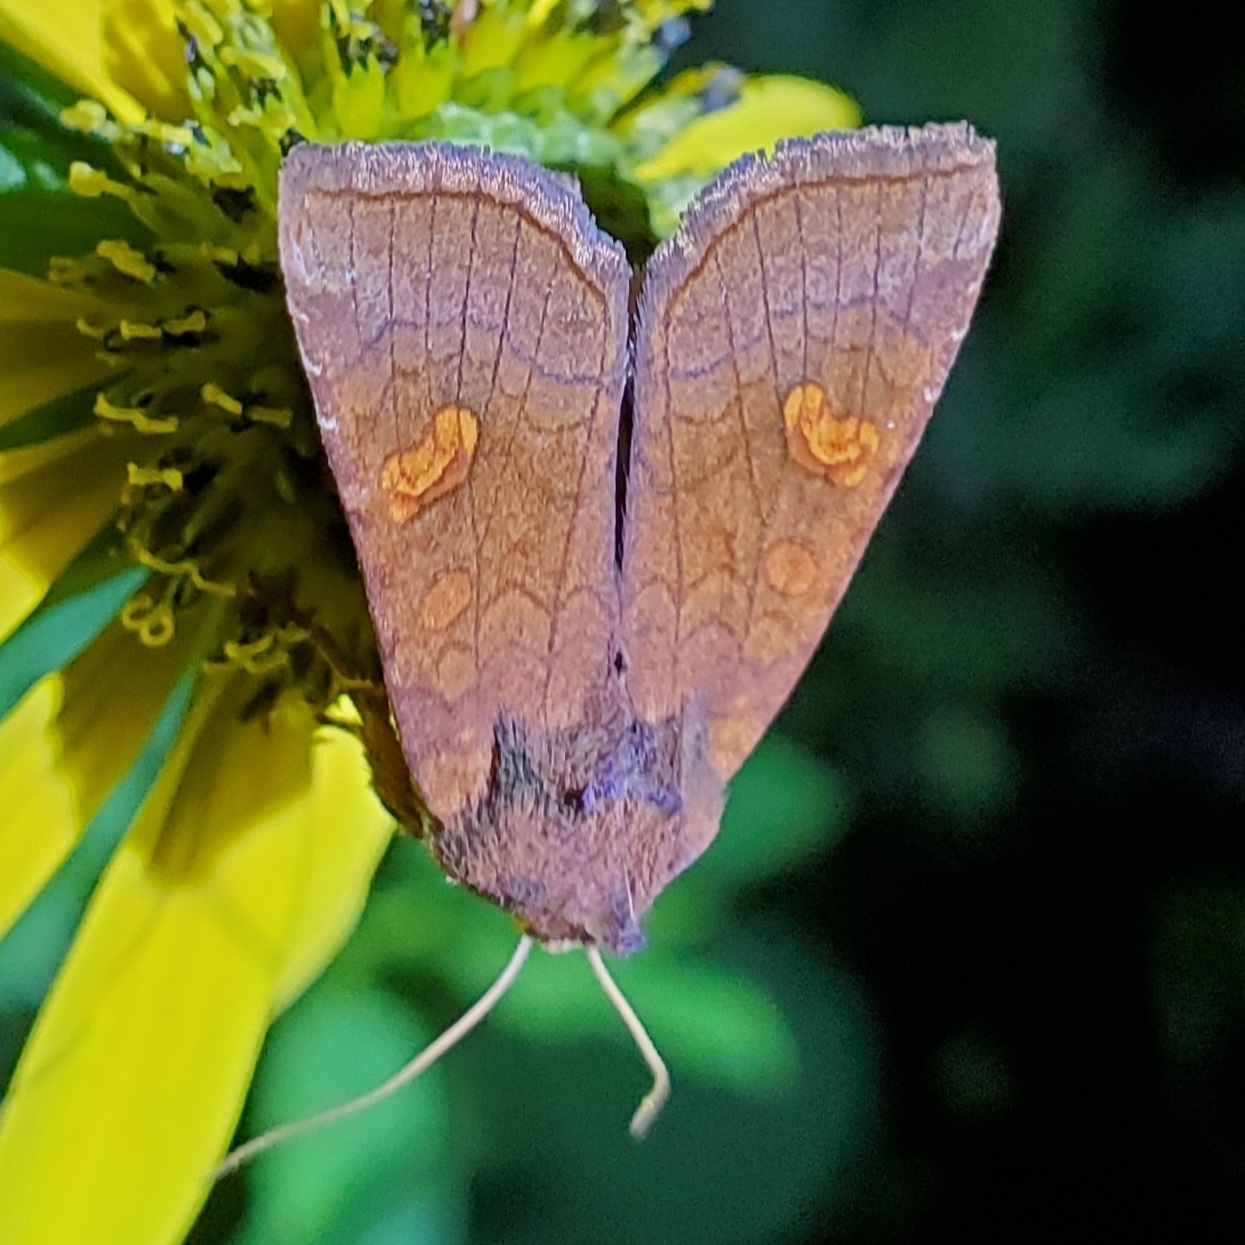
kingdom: Animalia
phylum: Arthropoda
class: Insecta
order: Lepidoptera
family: Noctuidae
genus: Amphipoea
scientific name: Amphipoea americana
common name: American ear moth
